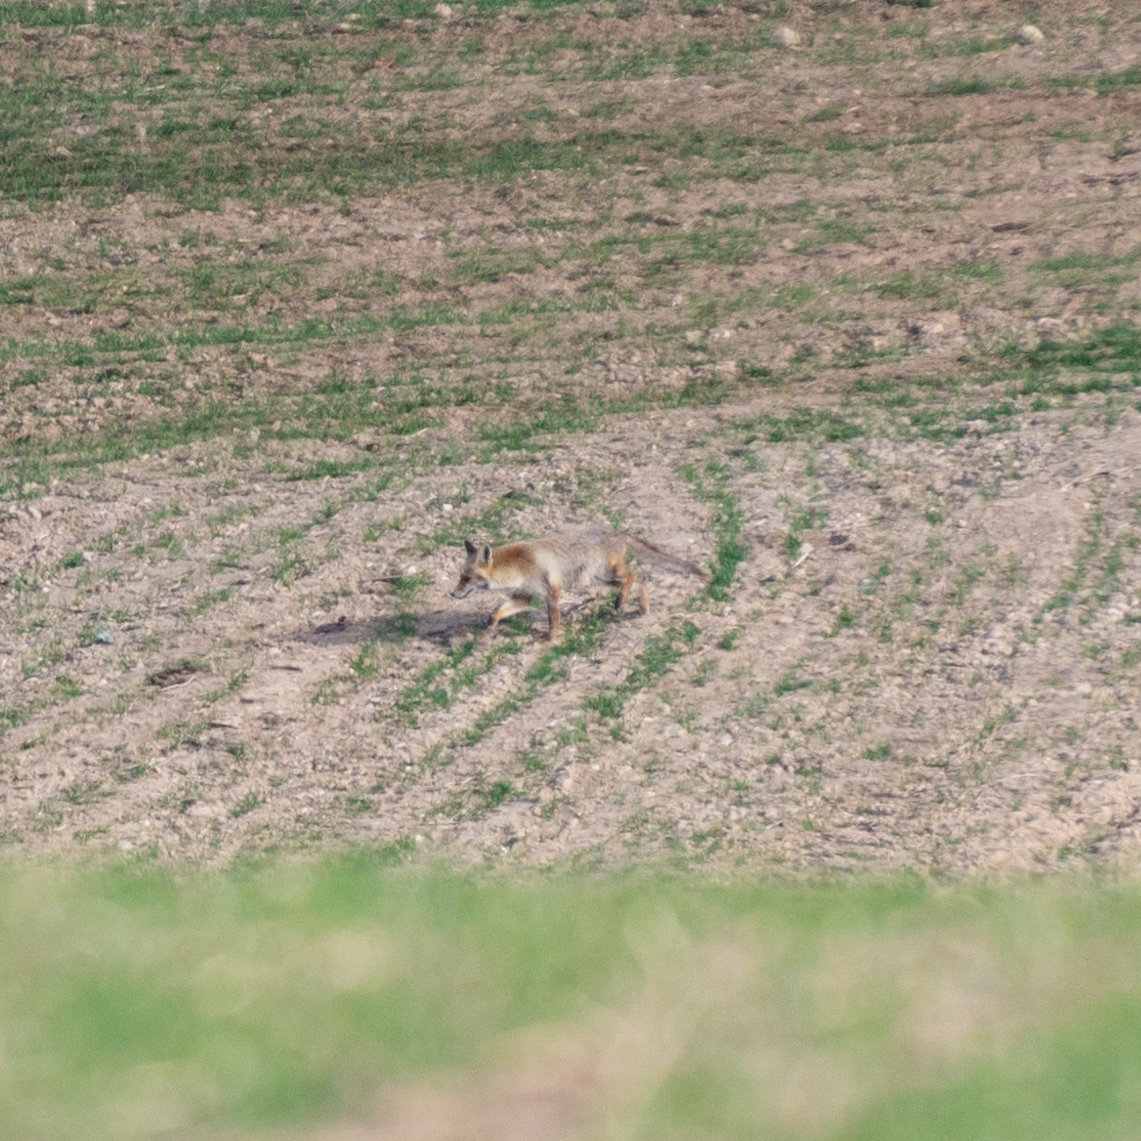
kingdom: Animalia
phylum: Chordata
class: Mammalia
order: Carnivora
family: Canidae
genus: Vulpes
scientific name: Vulpes vulpes
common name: Red fox
